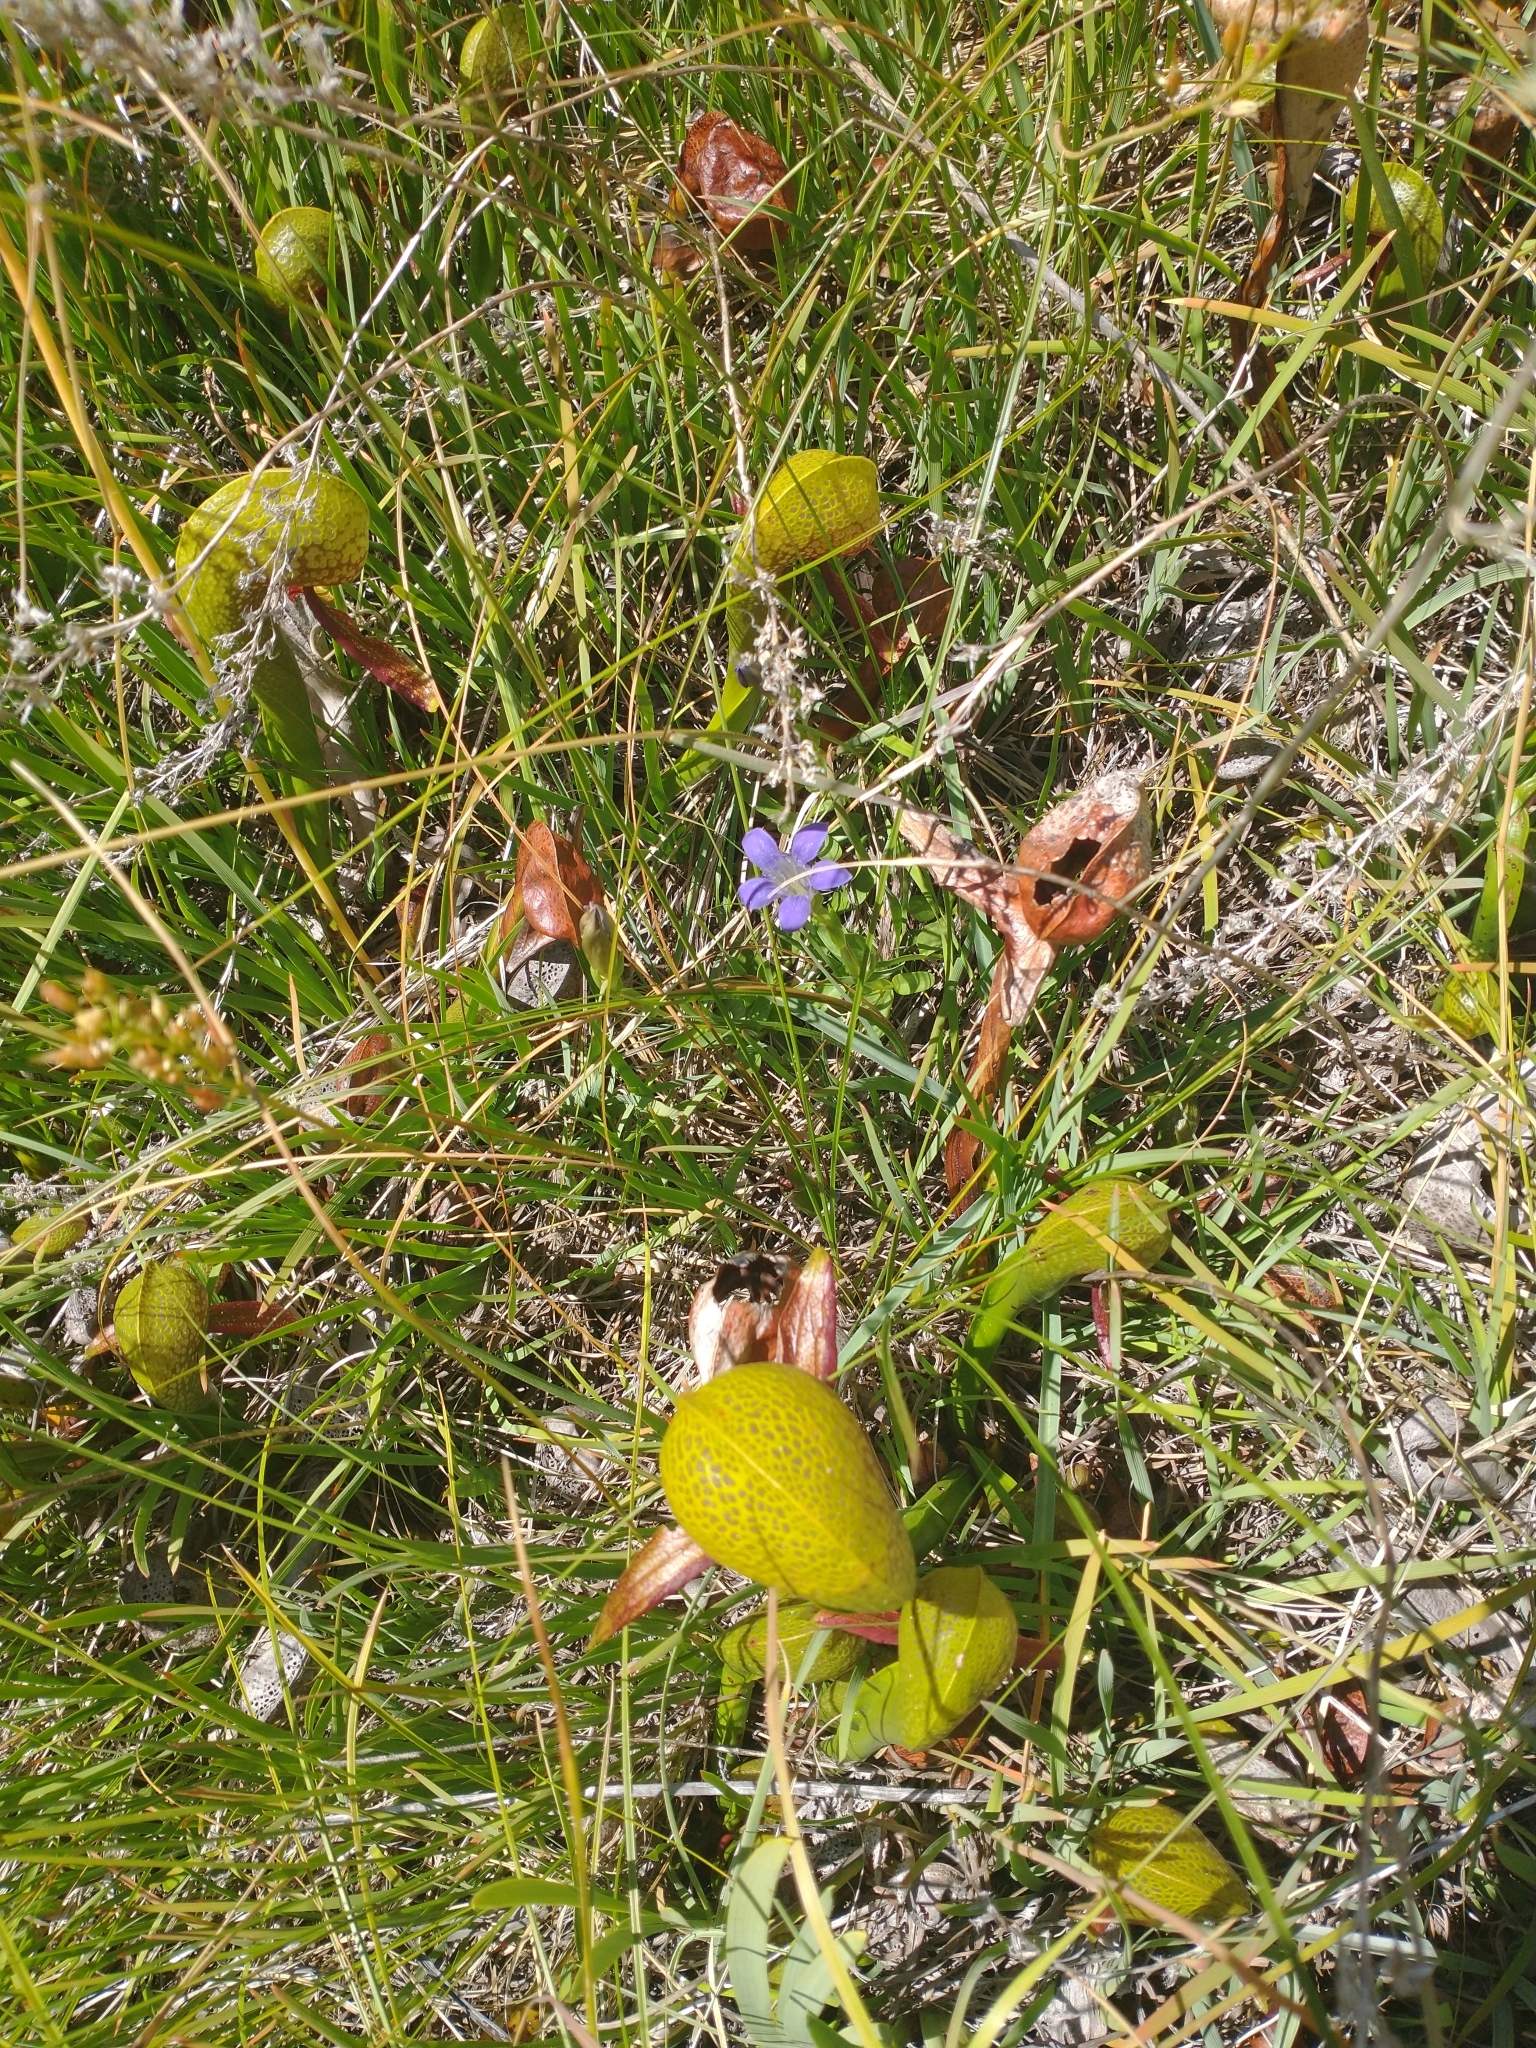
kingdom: Plantae
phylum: Tracheophyta
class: Magnoliopsida
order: Ericales
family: Sarraceniaceae
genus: Darlingtonia
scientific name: Darlingtonia californica
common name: California pitcher plant
